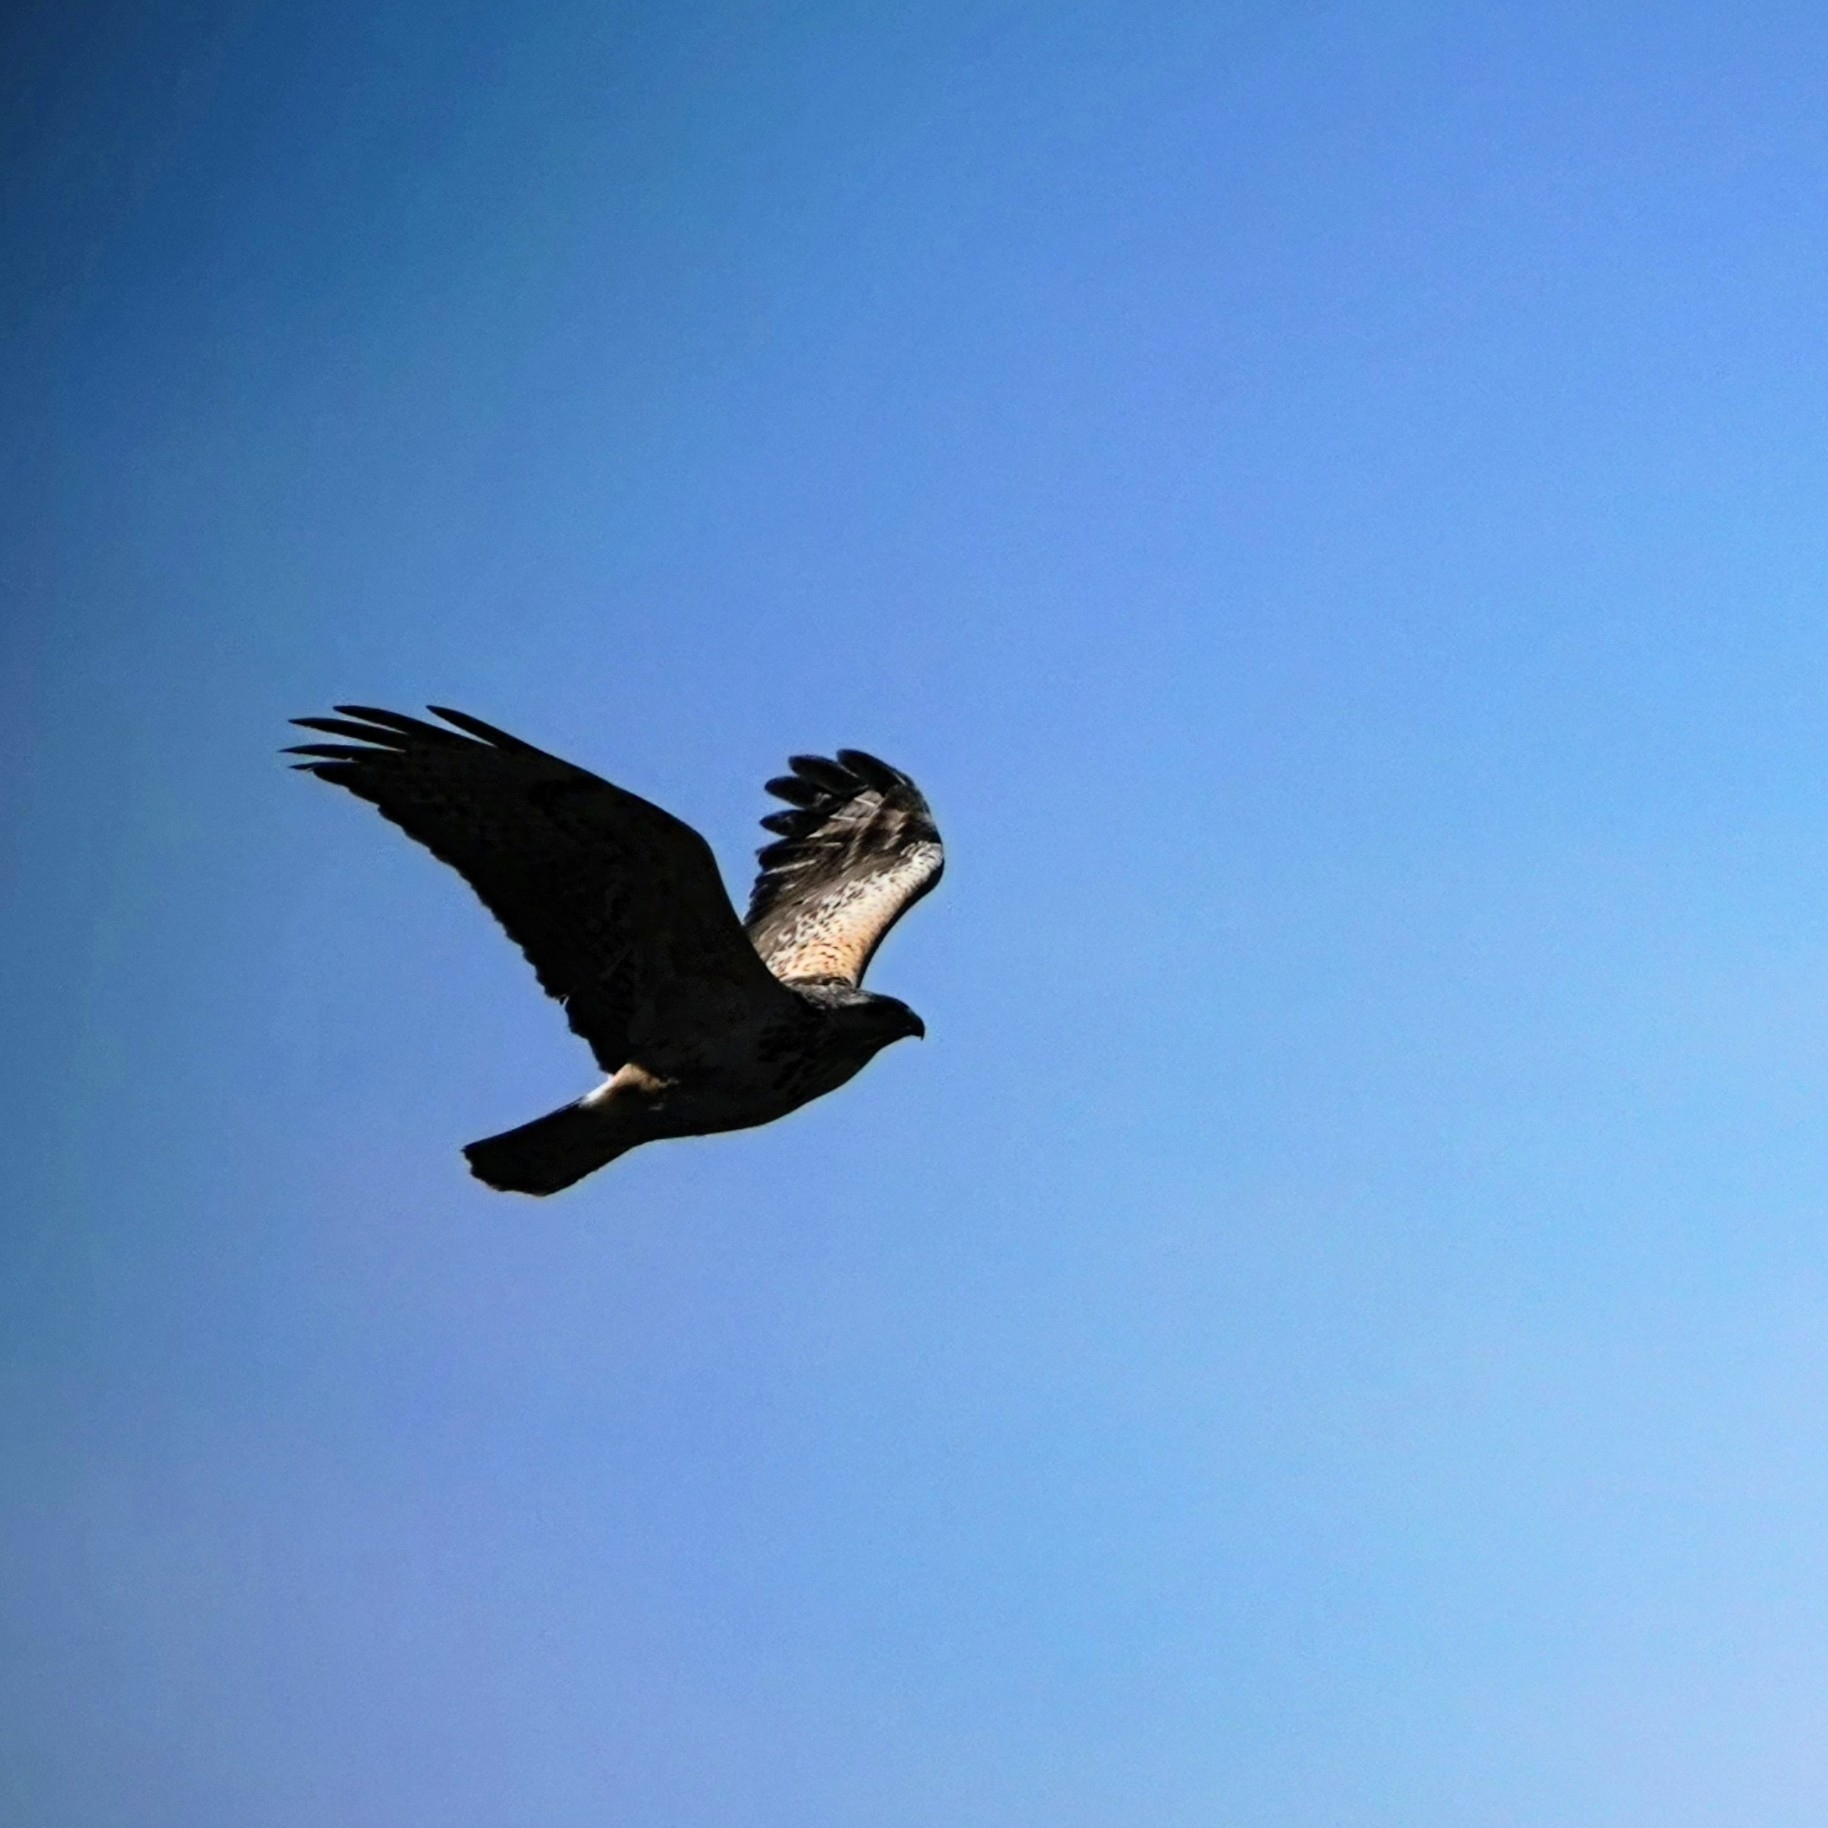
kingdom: Animalia
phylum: Chordata
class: Aves
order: Accipitriformes
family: Accipitridae
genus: Buteo
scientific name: Buteo buteo
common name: Common buzzard
